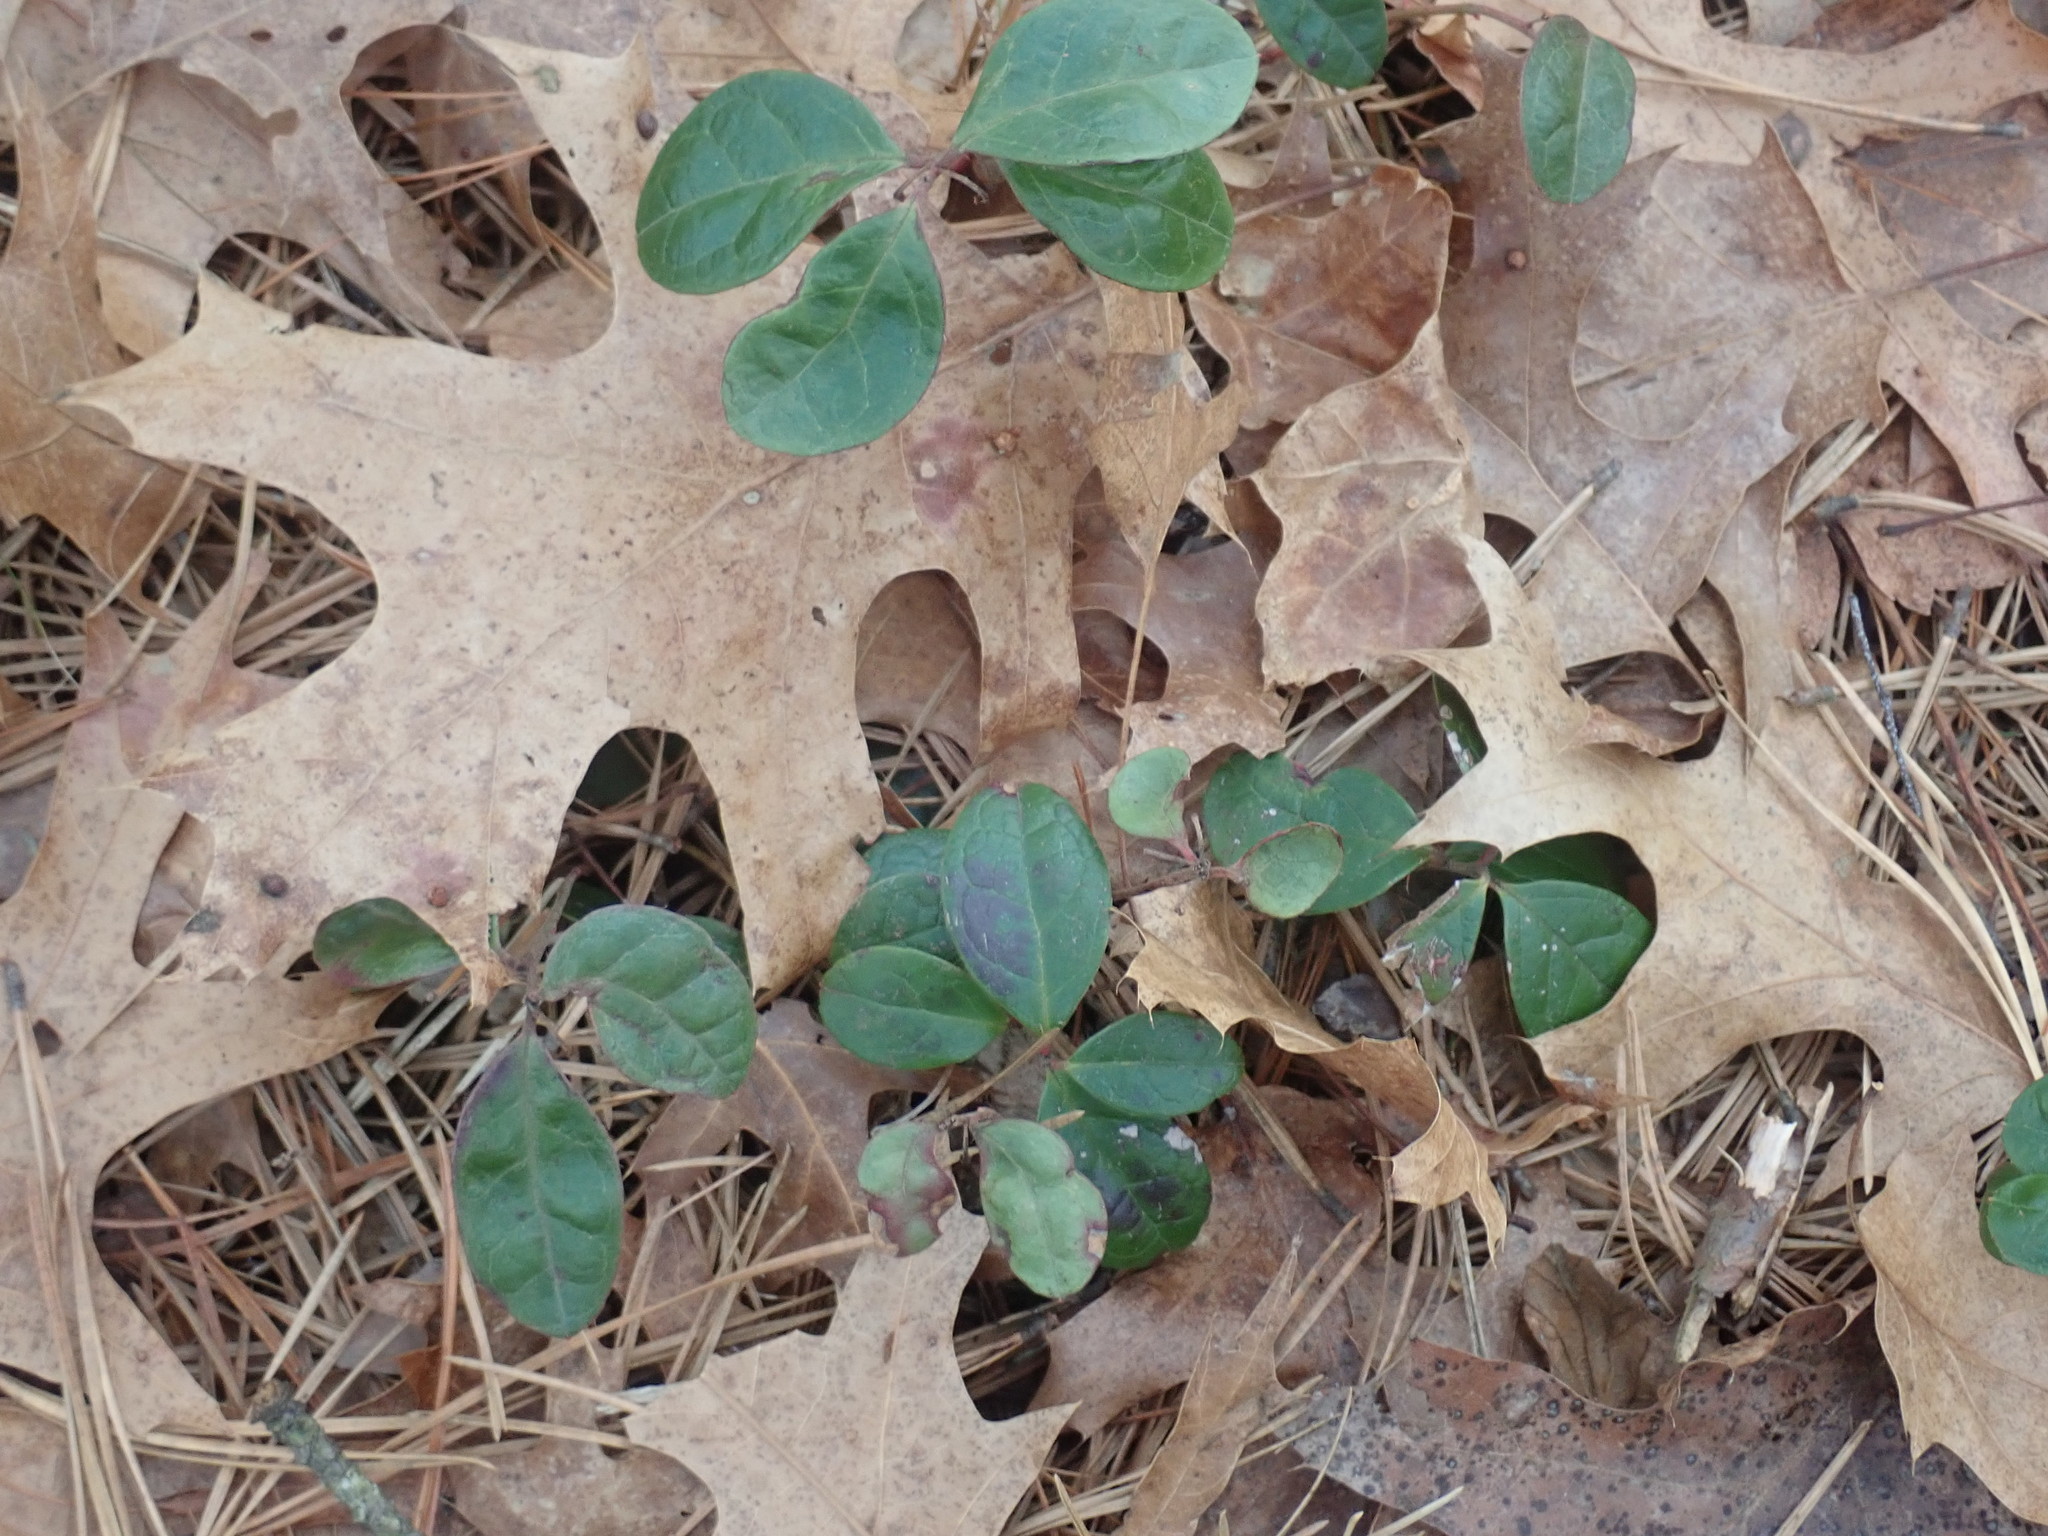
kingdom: Plantae
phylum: Tracheophyta
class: Magnoliopsida
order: Ericales
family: Ericaceae
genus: Gaultheria
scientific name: Gaultheria procumbens
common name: Checkerberry
